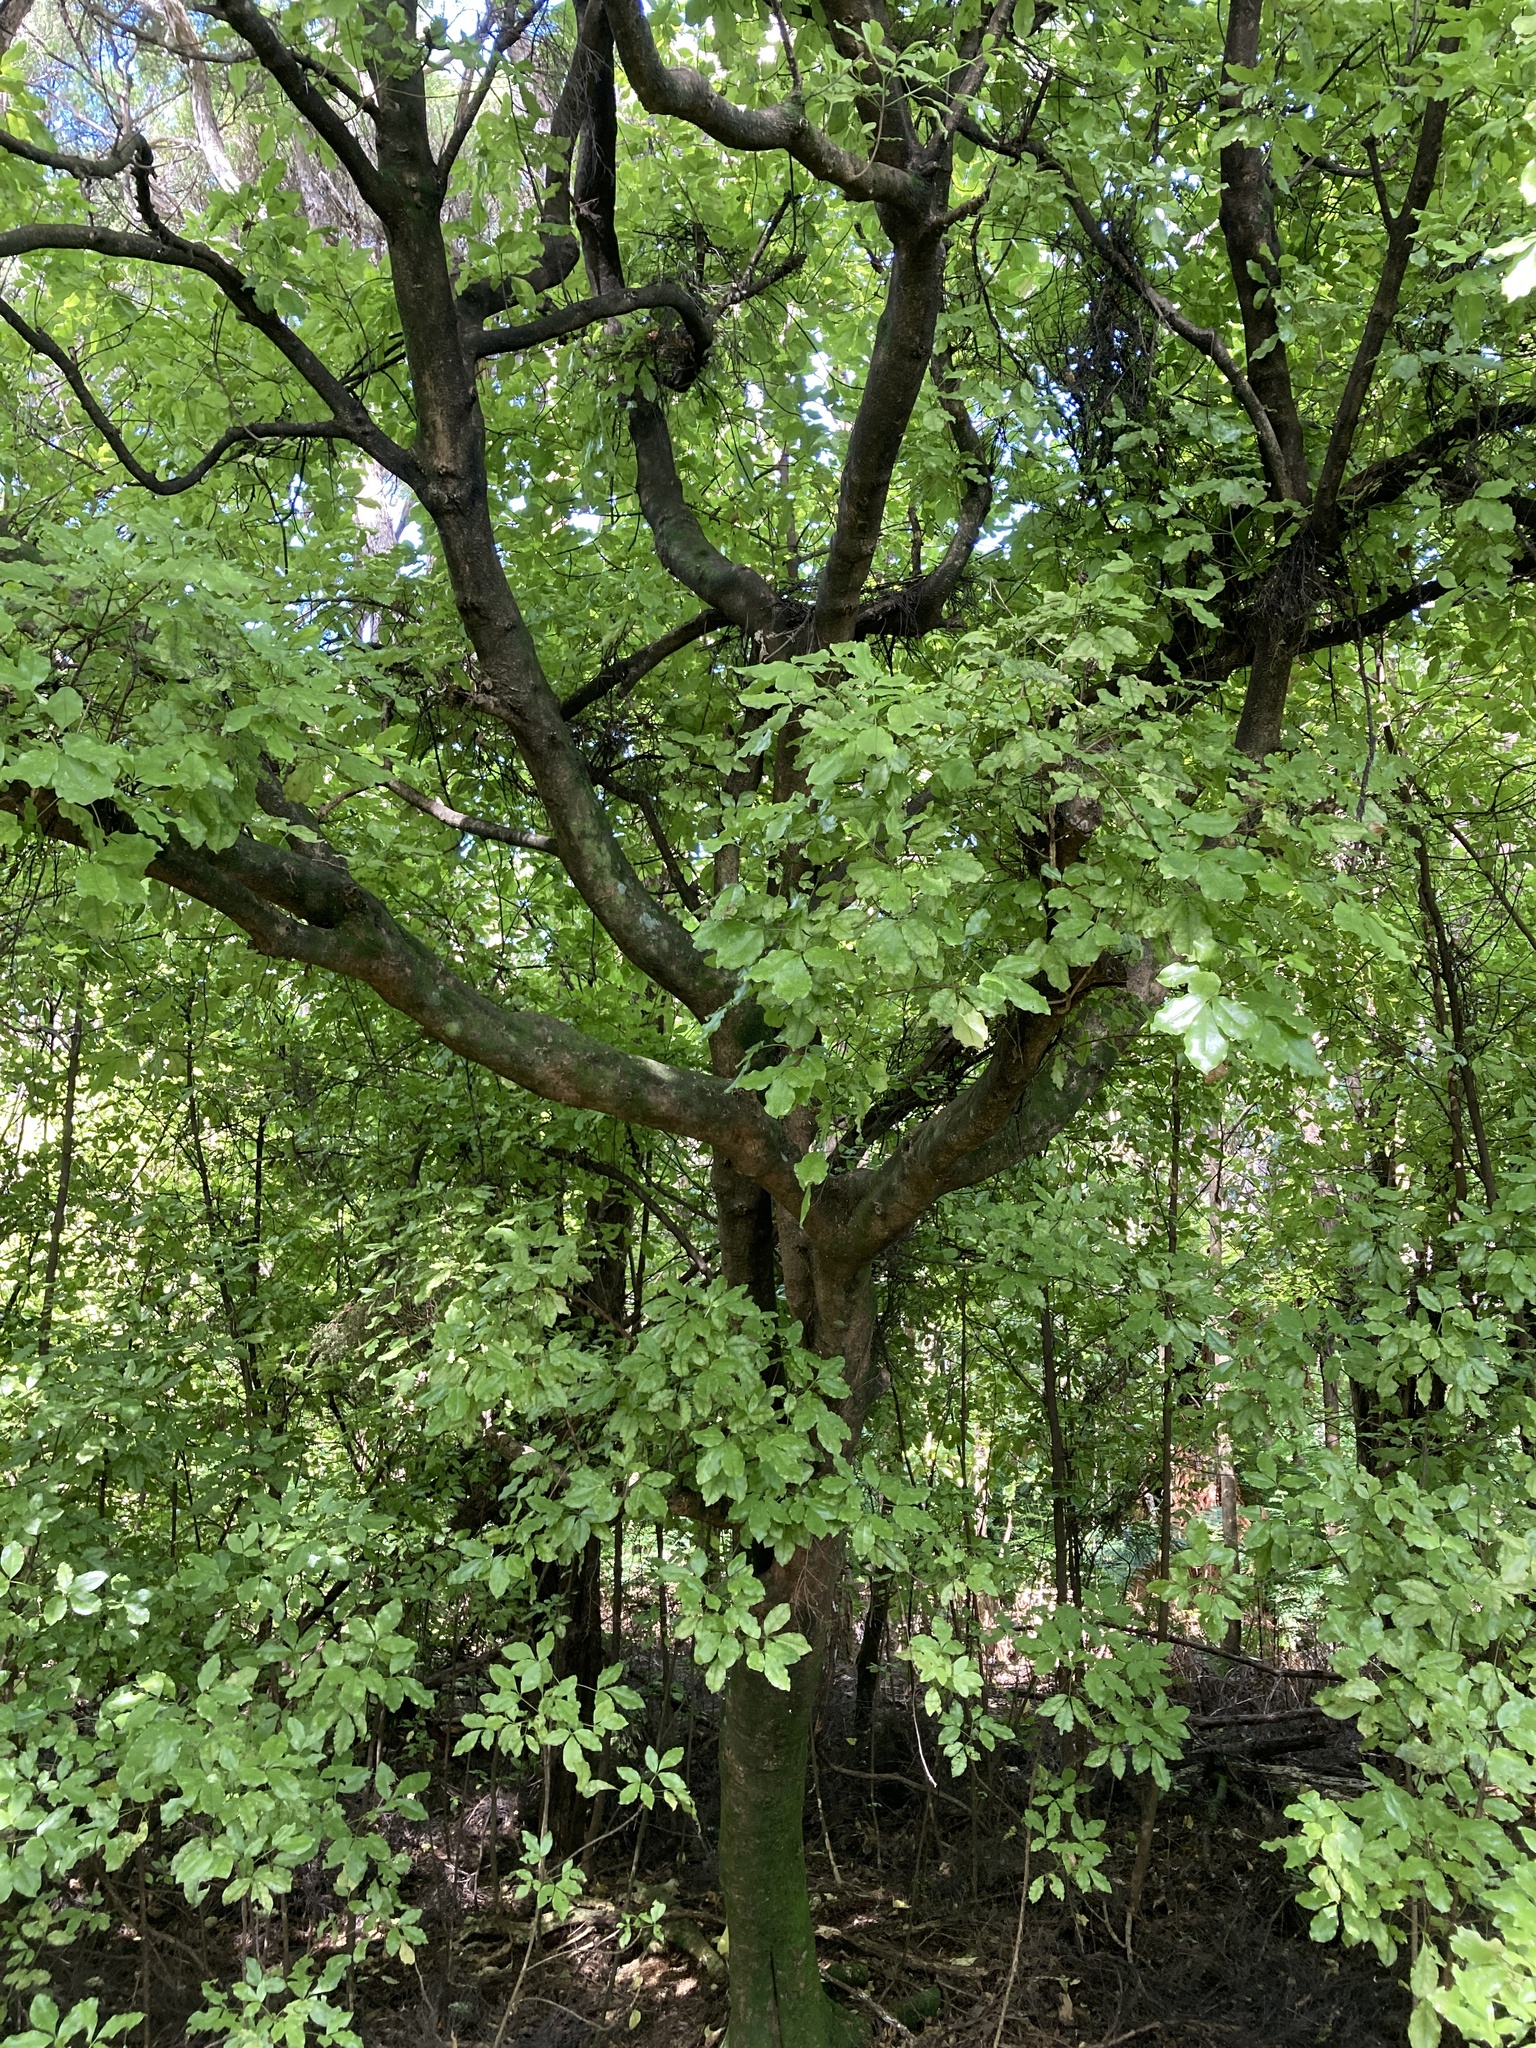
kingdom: Plantae
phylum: Tracheophyta
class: Magnoliopsida
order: Sapindales
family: Rutaceae
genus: Melicope
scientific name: Melicope ternata
